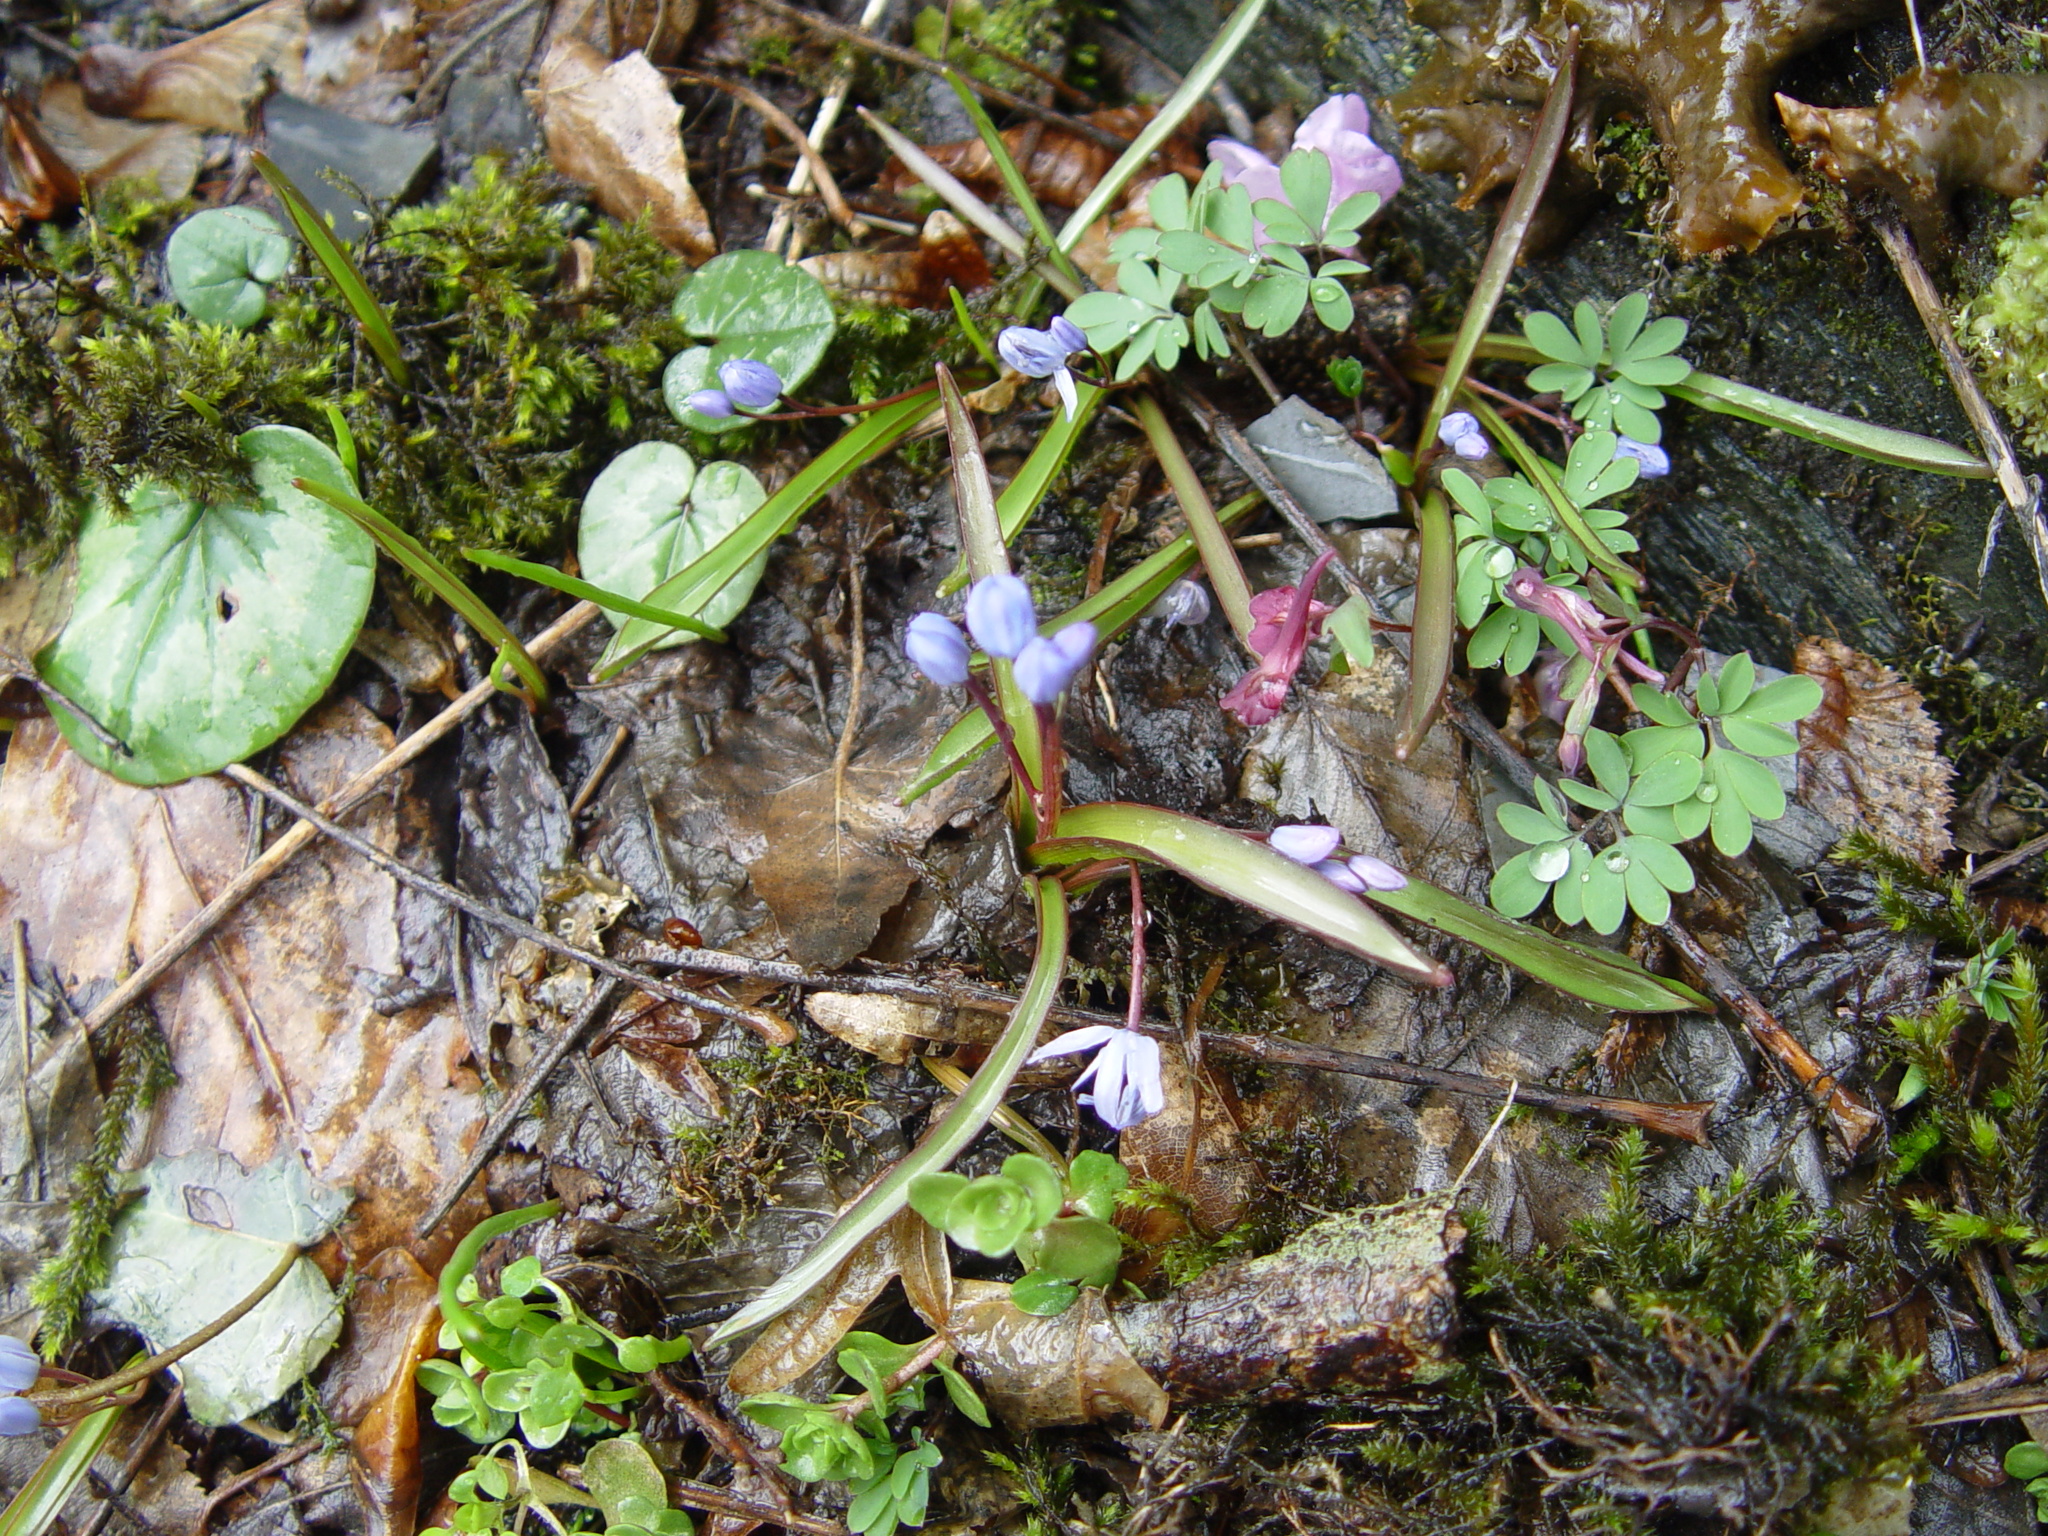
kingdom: Plantae
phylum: Tracheophyta
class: Liliopsida
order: Asparagales
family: Asparagaceae
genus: Scilla
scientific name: Scilla bifolia
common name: Alpine squill
